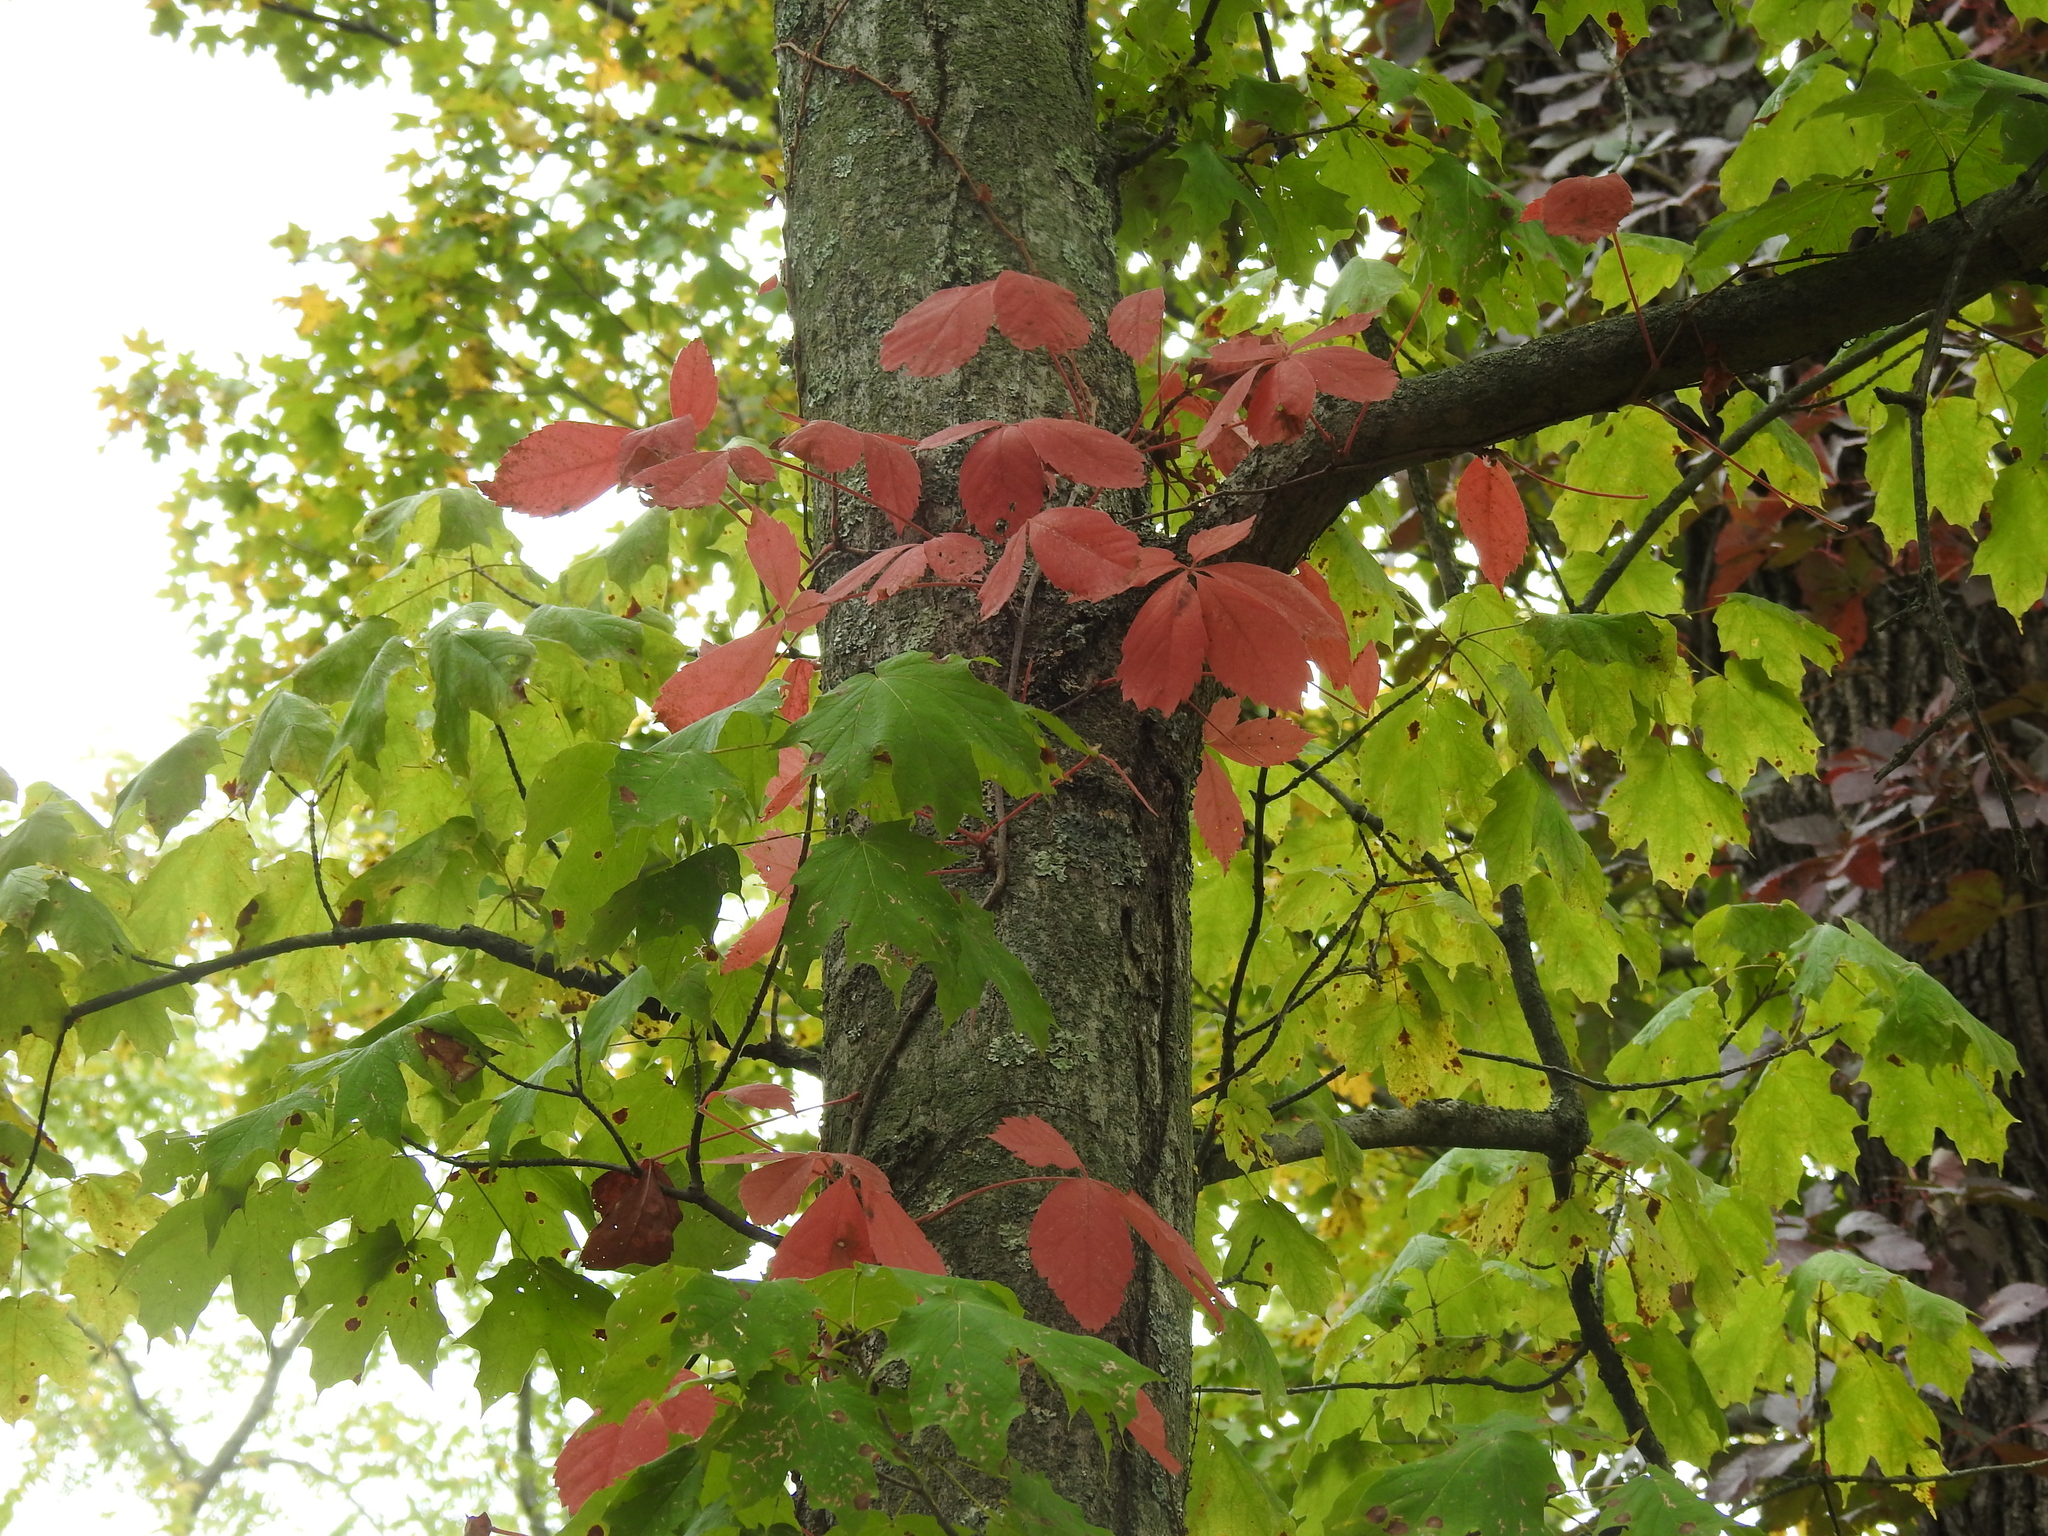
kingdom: Plantae
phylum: Tracheophyta
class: Magnoliopsida
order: Vitales
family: Vitaceae
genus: Parthenocissus
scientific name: Parthenocissus quinquefolia
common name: Virginia-creeper
